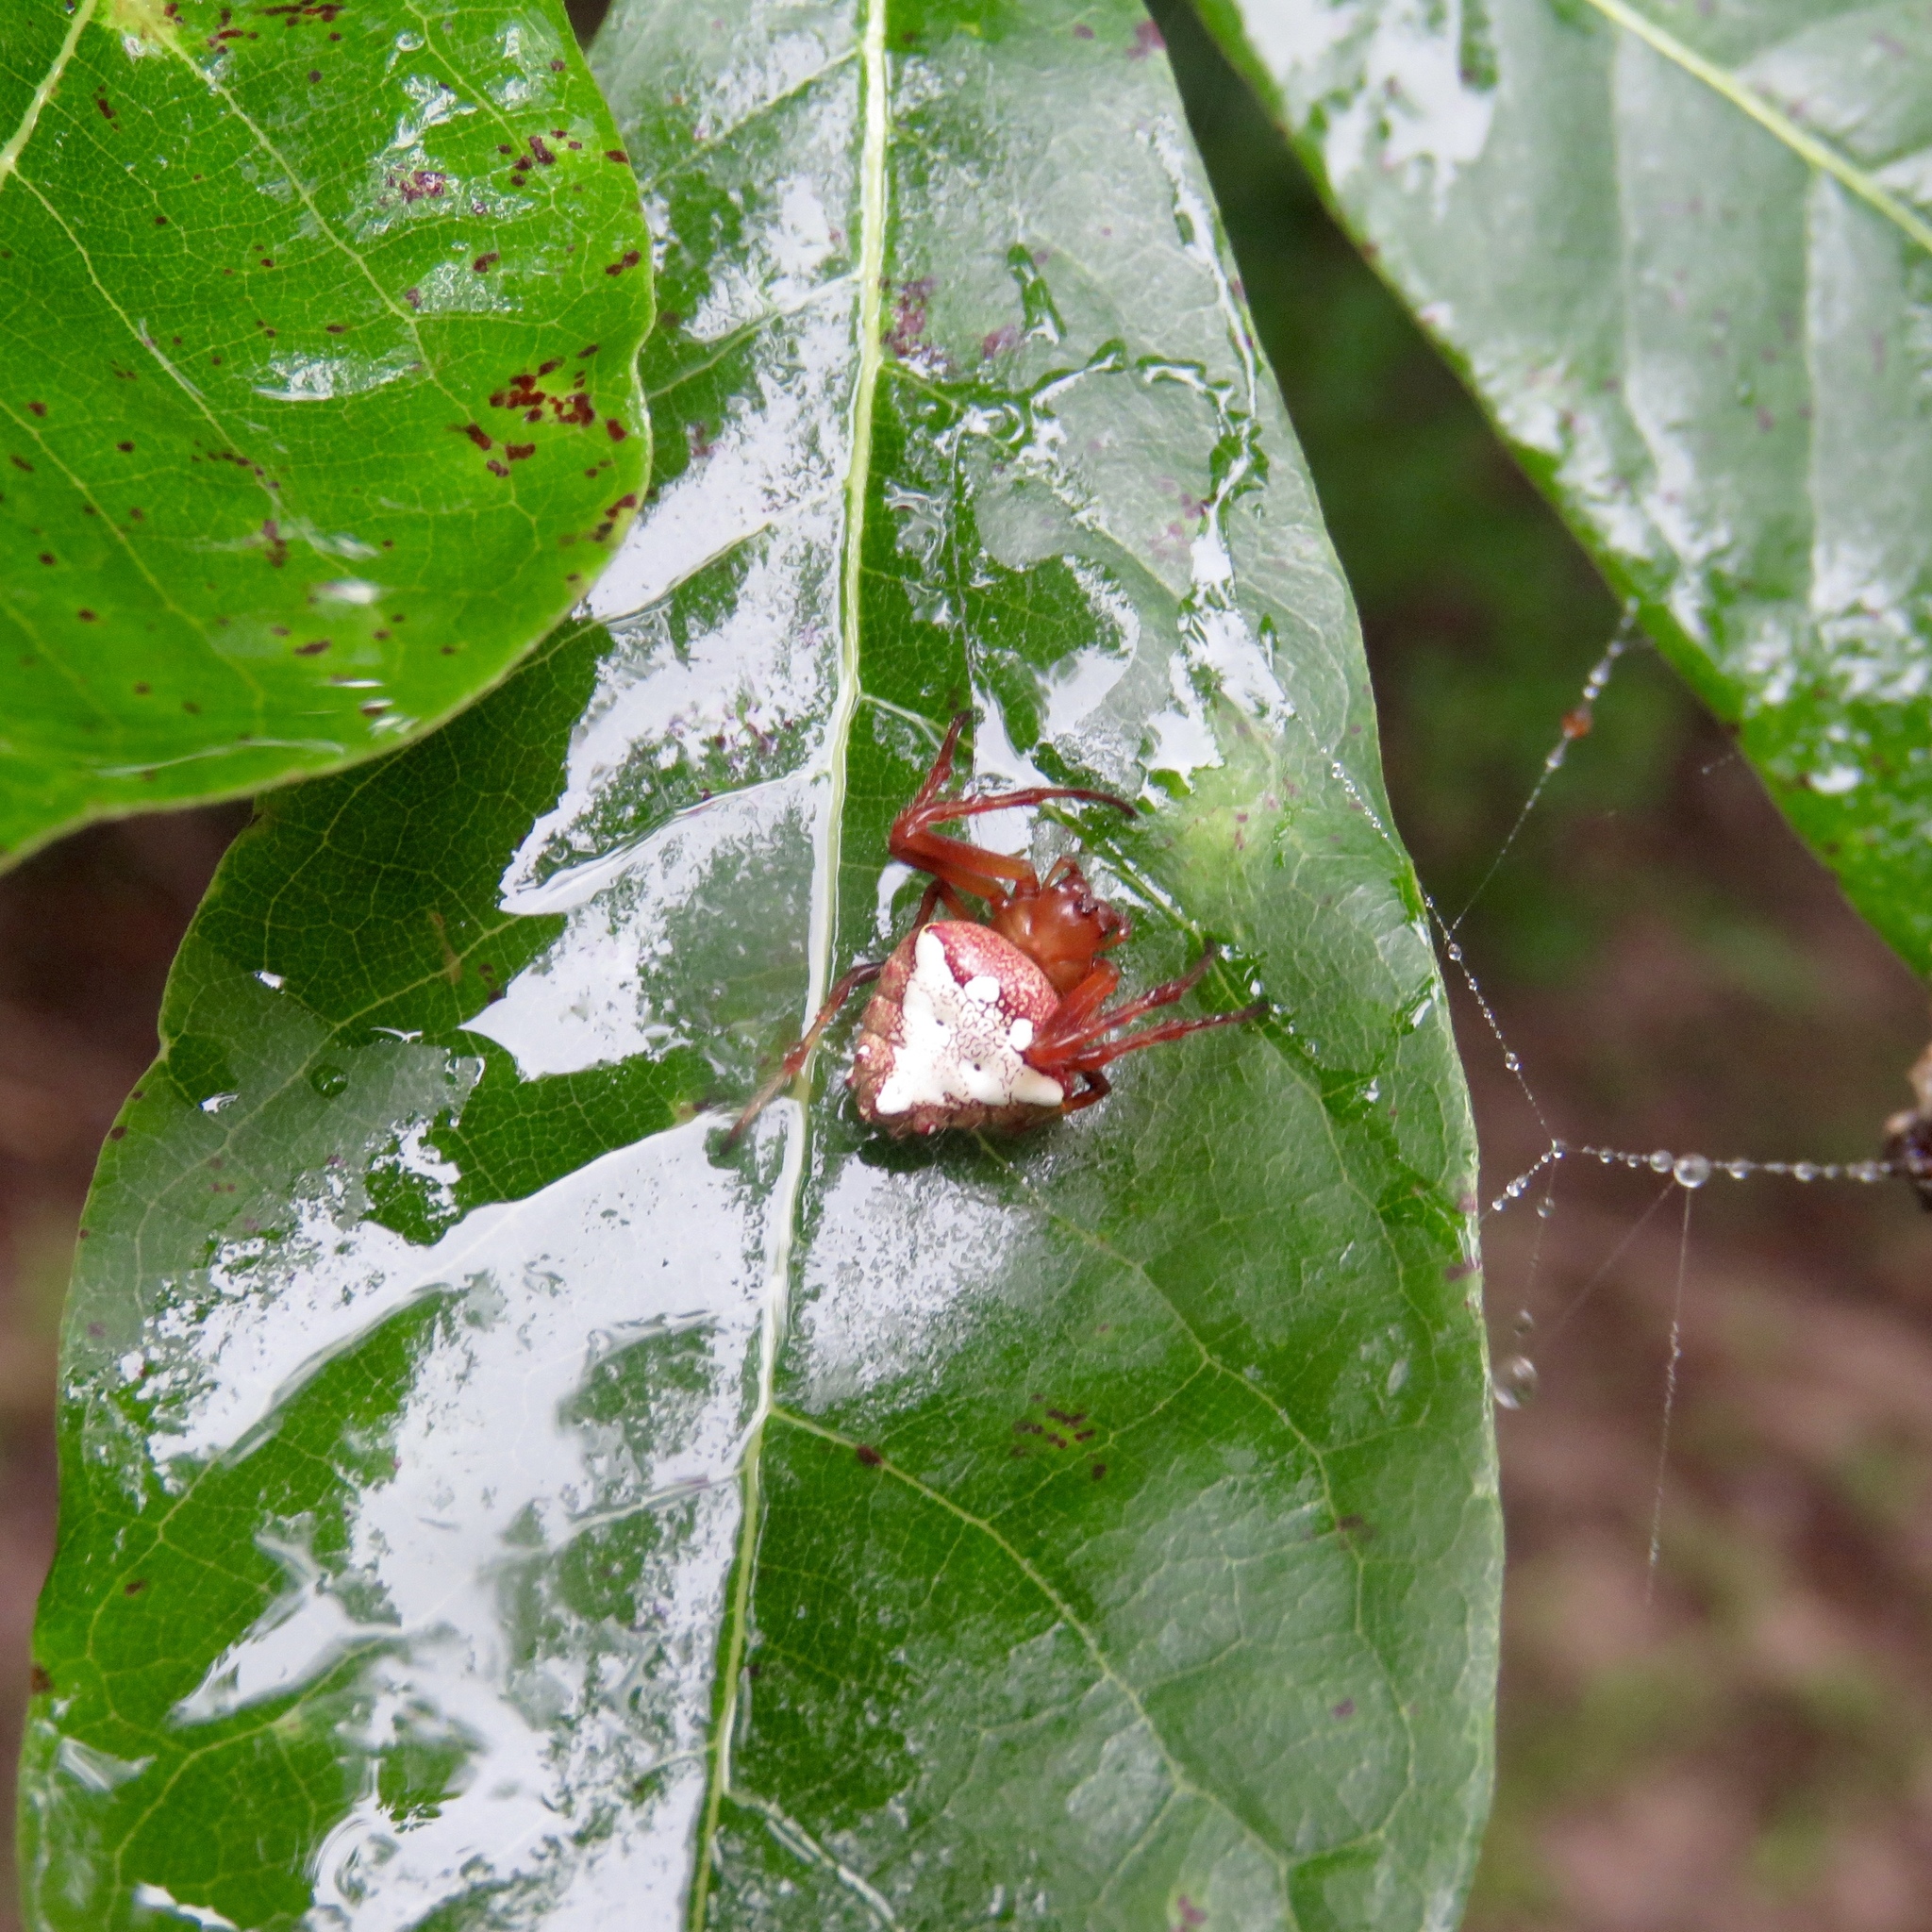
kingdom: Animalia
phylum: Arthropoda
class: Arachnida
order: Araneae
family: Araneidae
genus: Verrucosa
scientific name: Verrucosa arenata
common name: Orb weavers
